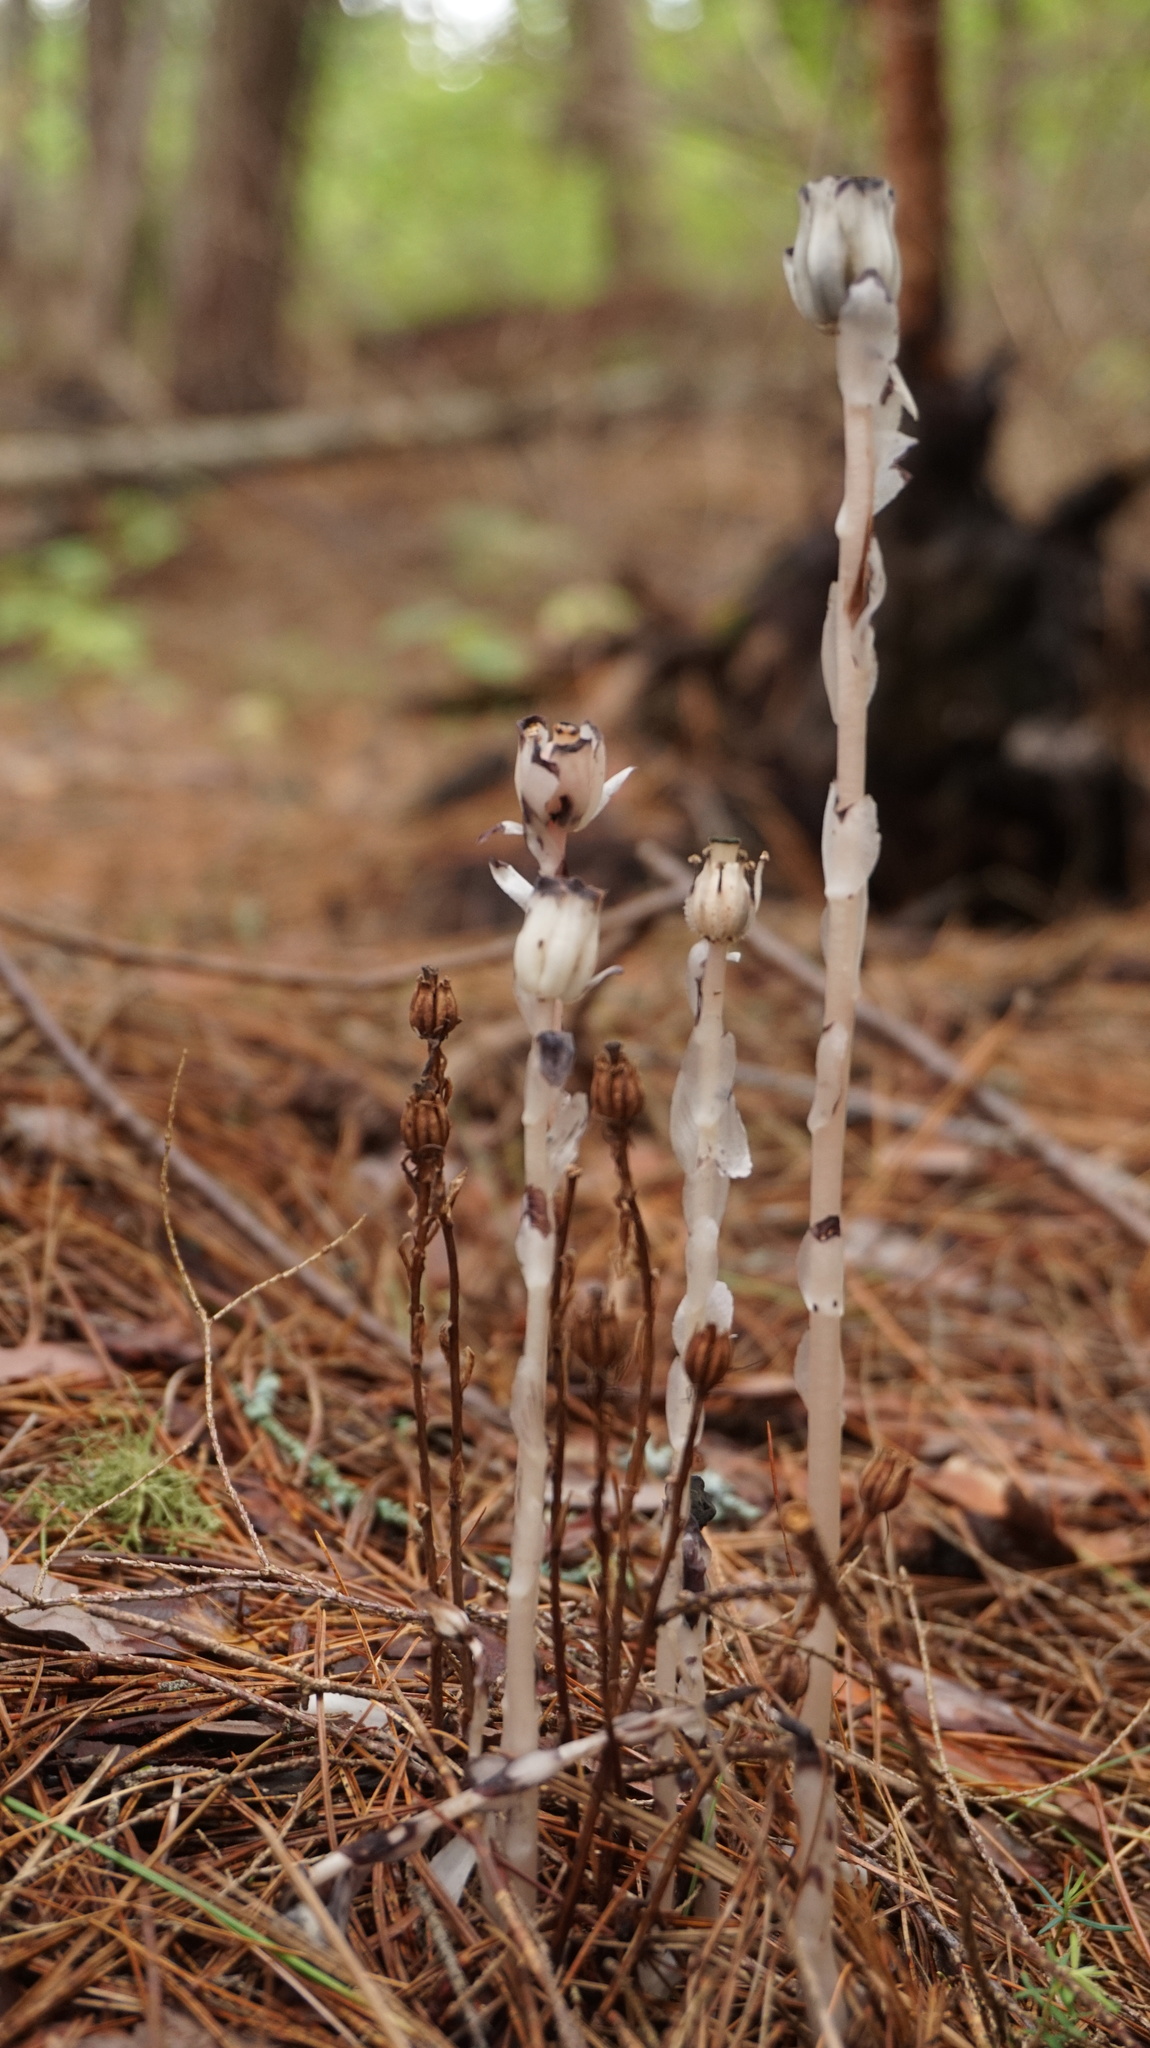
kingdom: Plantae
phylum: Tracheophyta
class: Magnoliopsida
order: Ericales
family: Ericaceae
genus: Monotropa
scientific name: Monotropa uniflora
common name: Convulsion root
